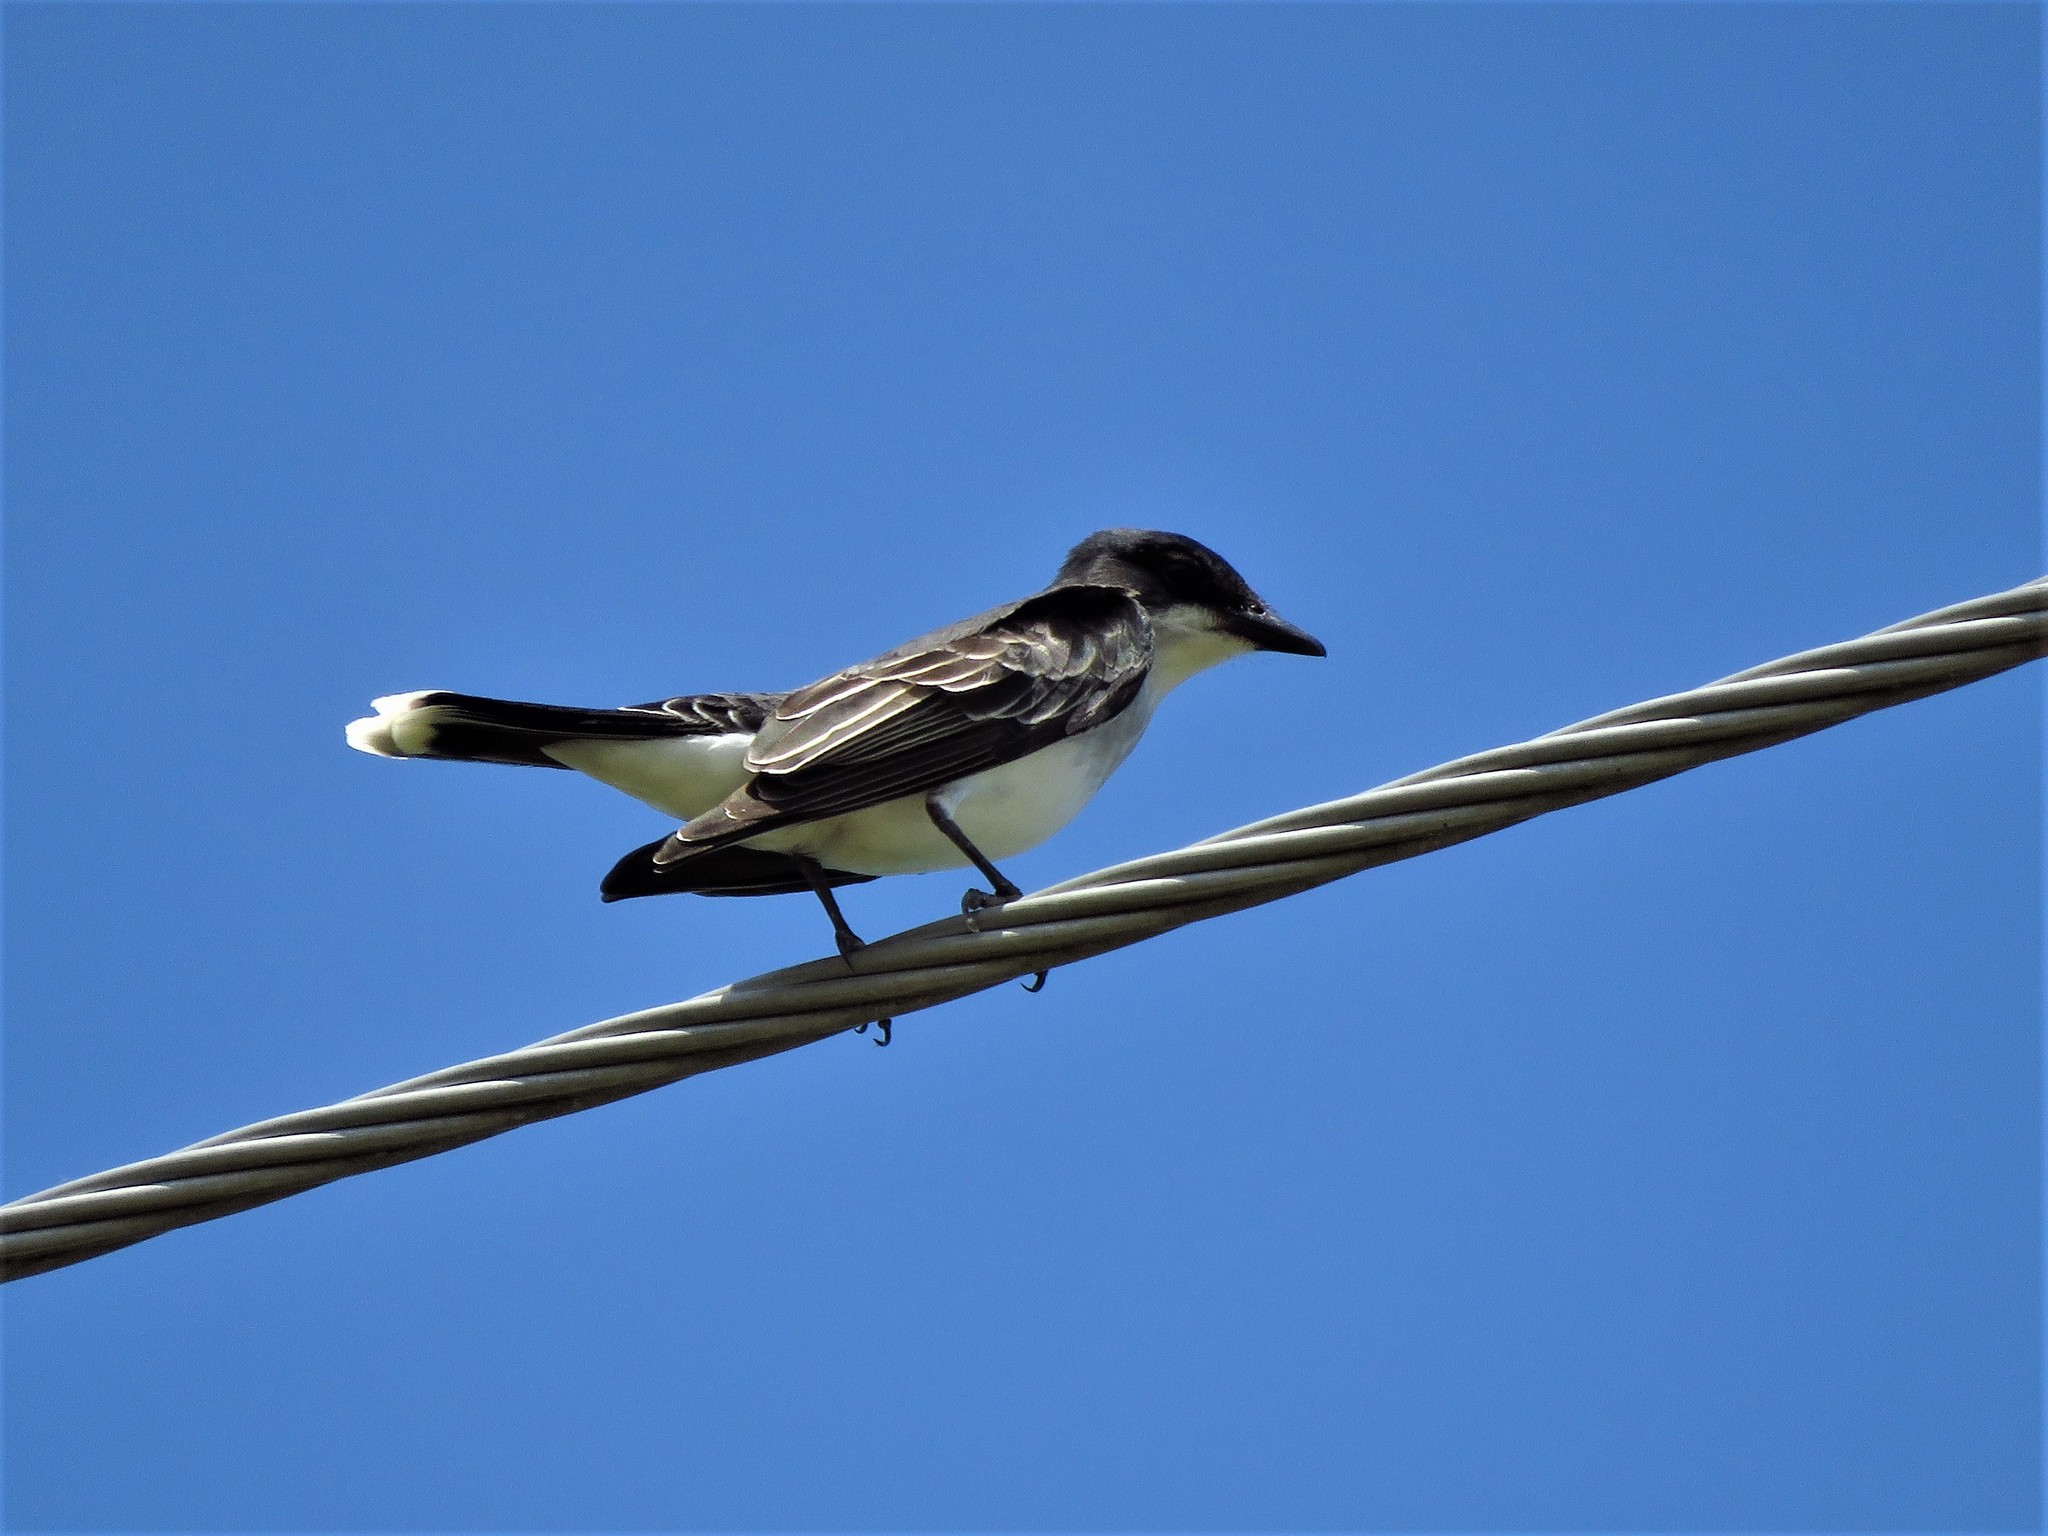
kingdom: Animalia
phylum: Chordata
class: Aves
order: Passeriformes
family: Tyrannidae
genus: Tyrannus
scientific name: Tyrannus tyrannus
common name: Eastern kingbird
